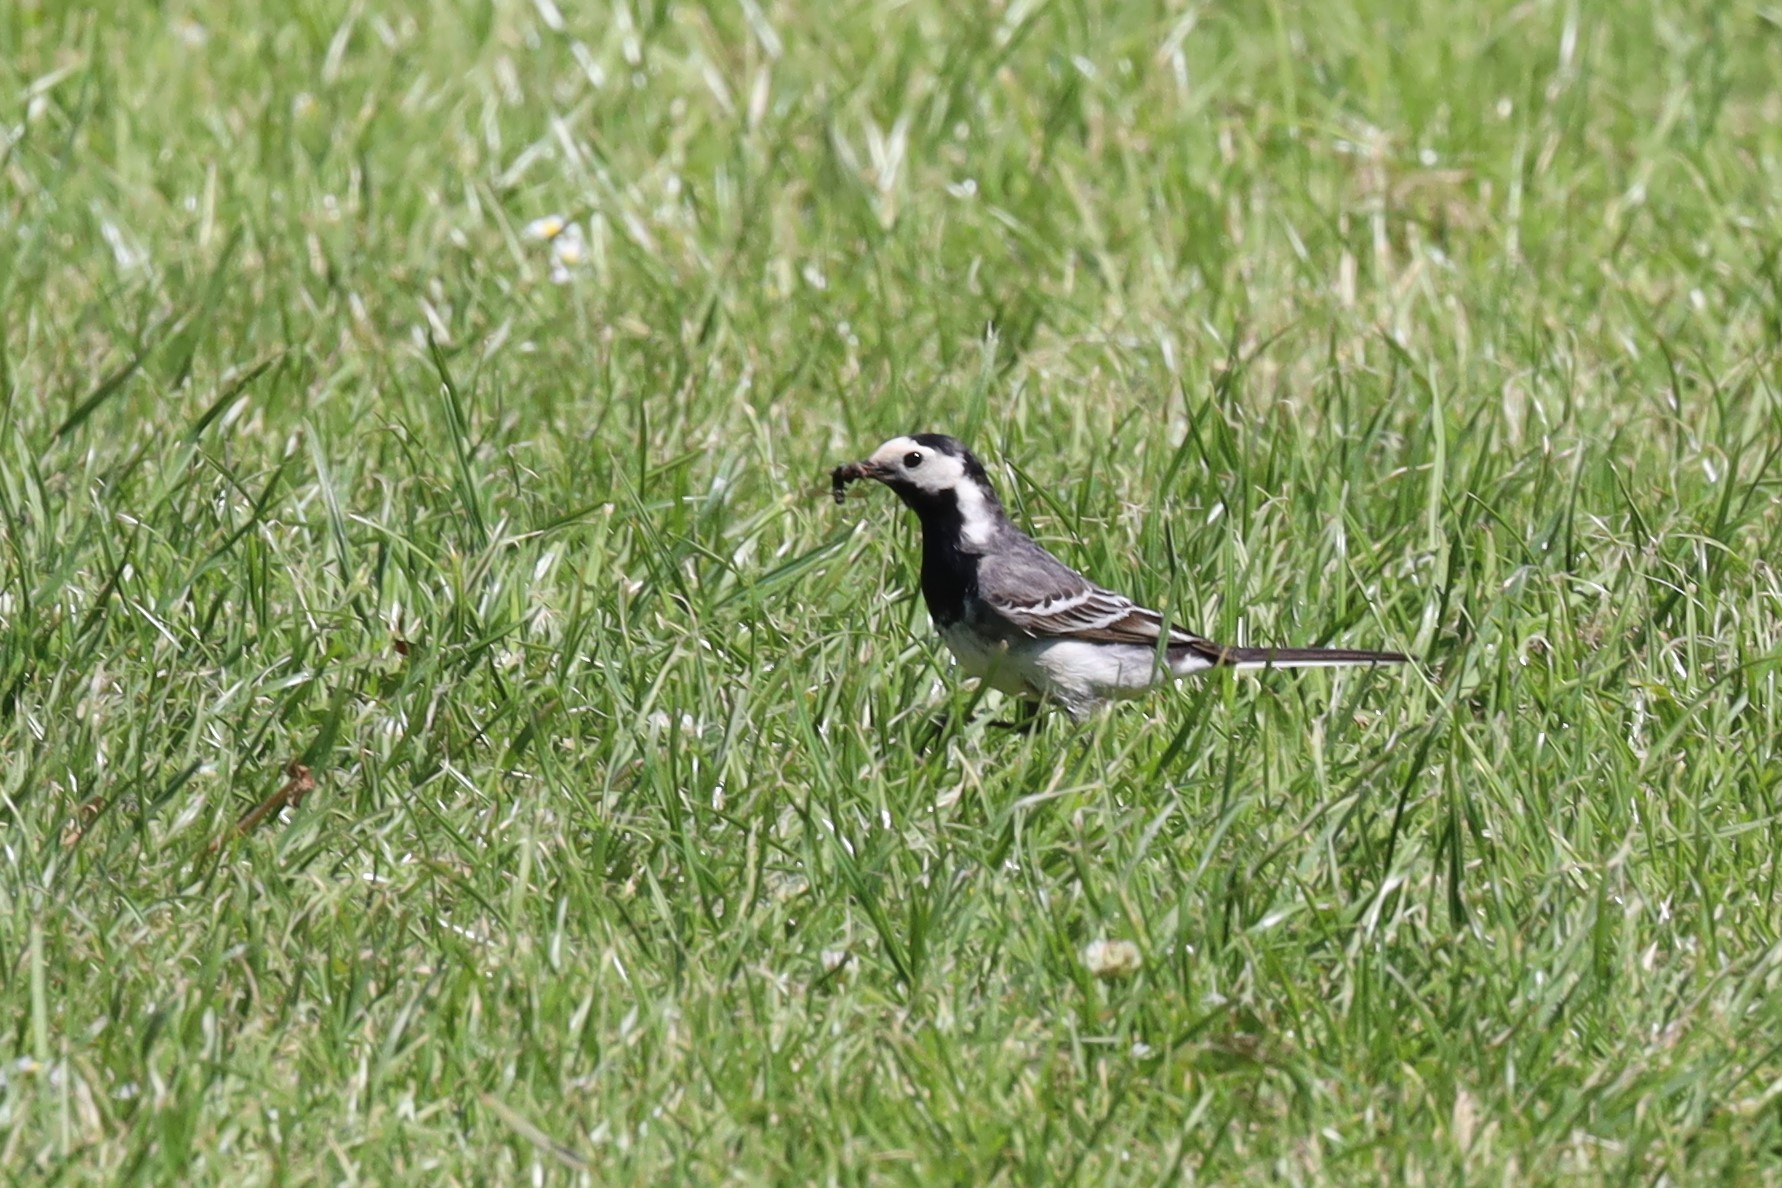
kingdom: Animalia
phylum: Chordata
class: Aves
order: Passeriformes
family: Motacillidae
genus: Motacilla
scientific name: Motacilla alba
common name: White wagtail
